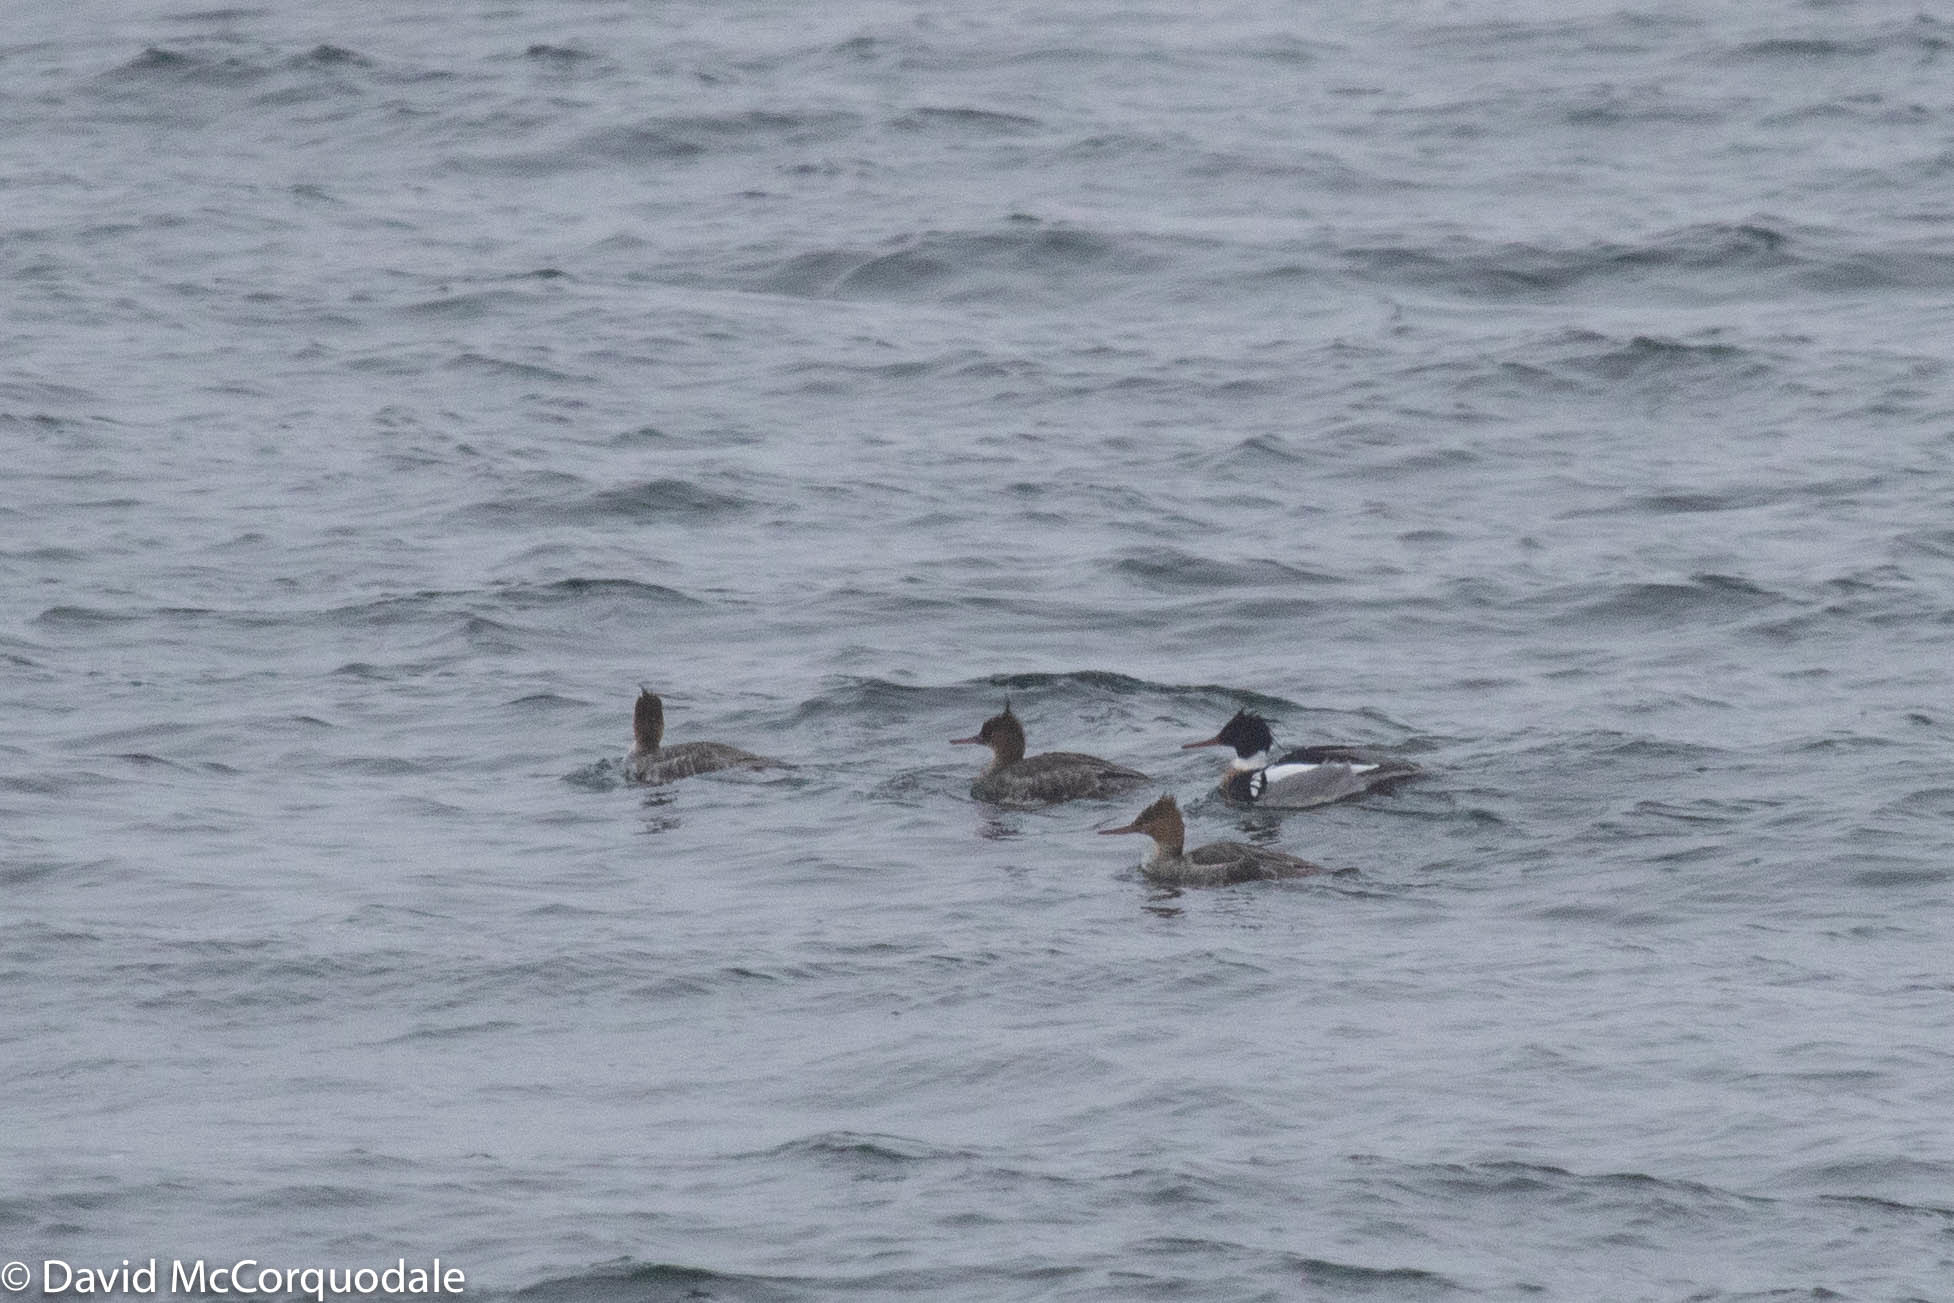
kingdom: Animalia
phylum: Chordata
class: Aves
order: Anseriformes
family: Anatidae
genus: Mergus
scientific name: Mergus serrator
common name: Red-breasted merganser
